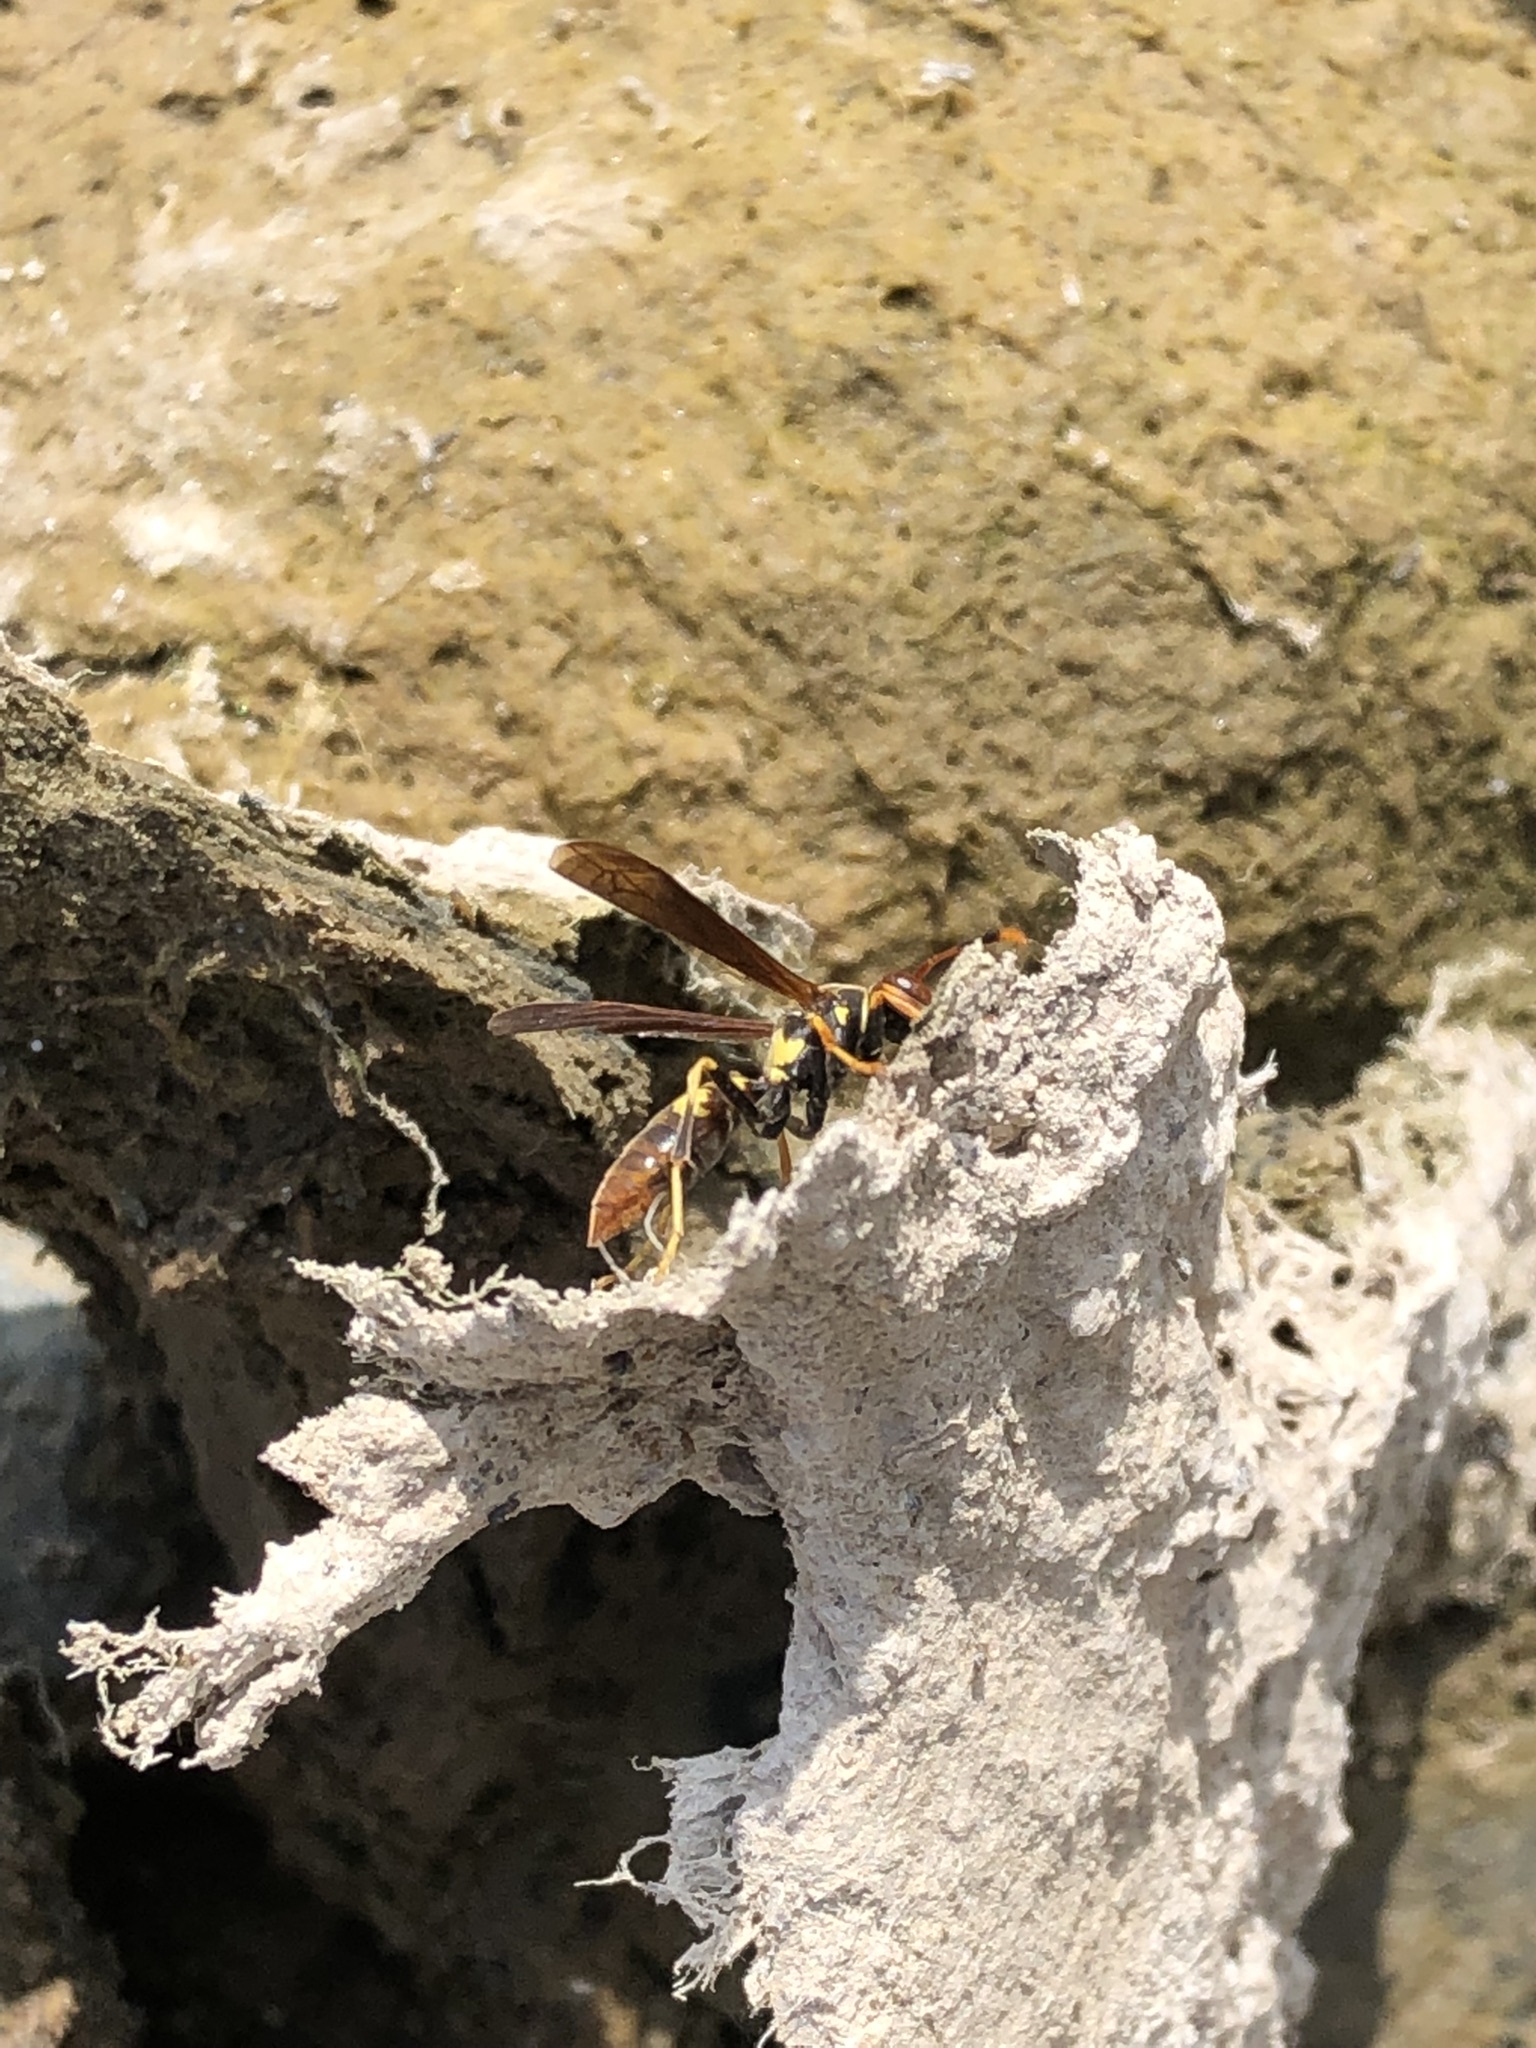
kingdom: Animalia
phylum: Arthropoda
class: Insecta
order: Hymenoptera
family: Eumenidae
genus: Polistes
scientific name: Polistes peruvianus
